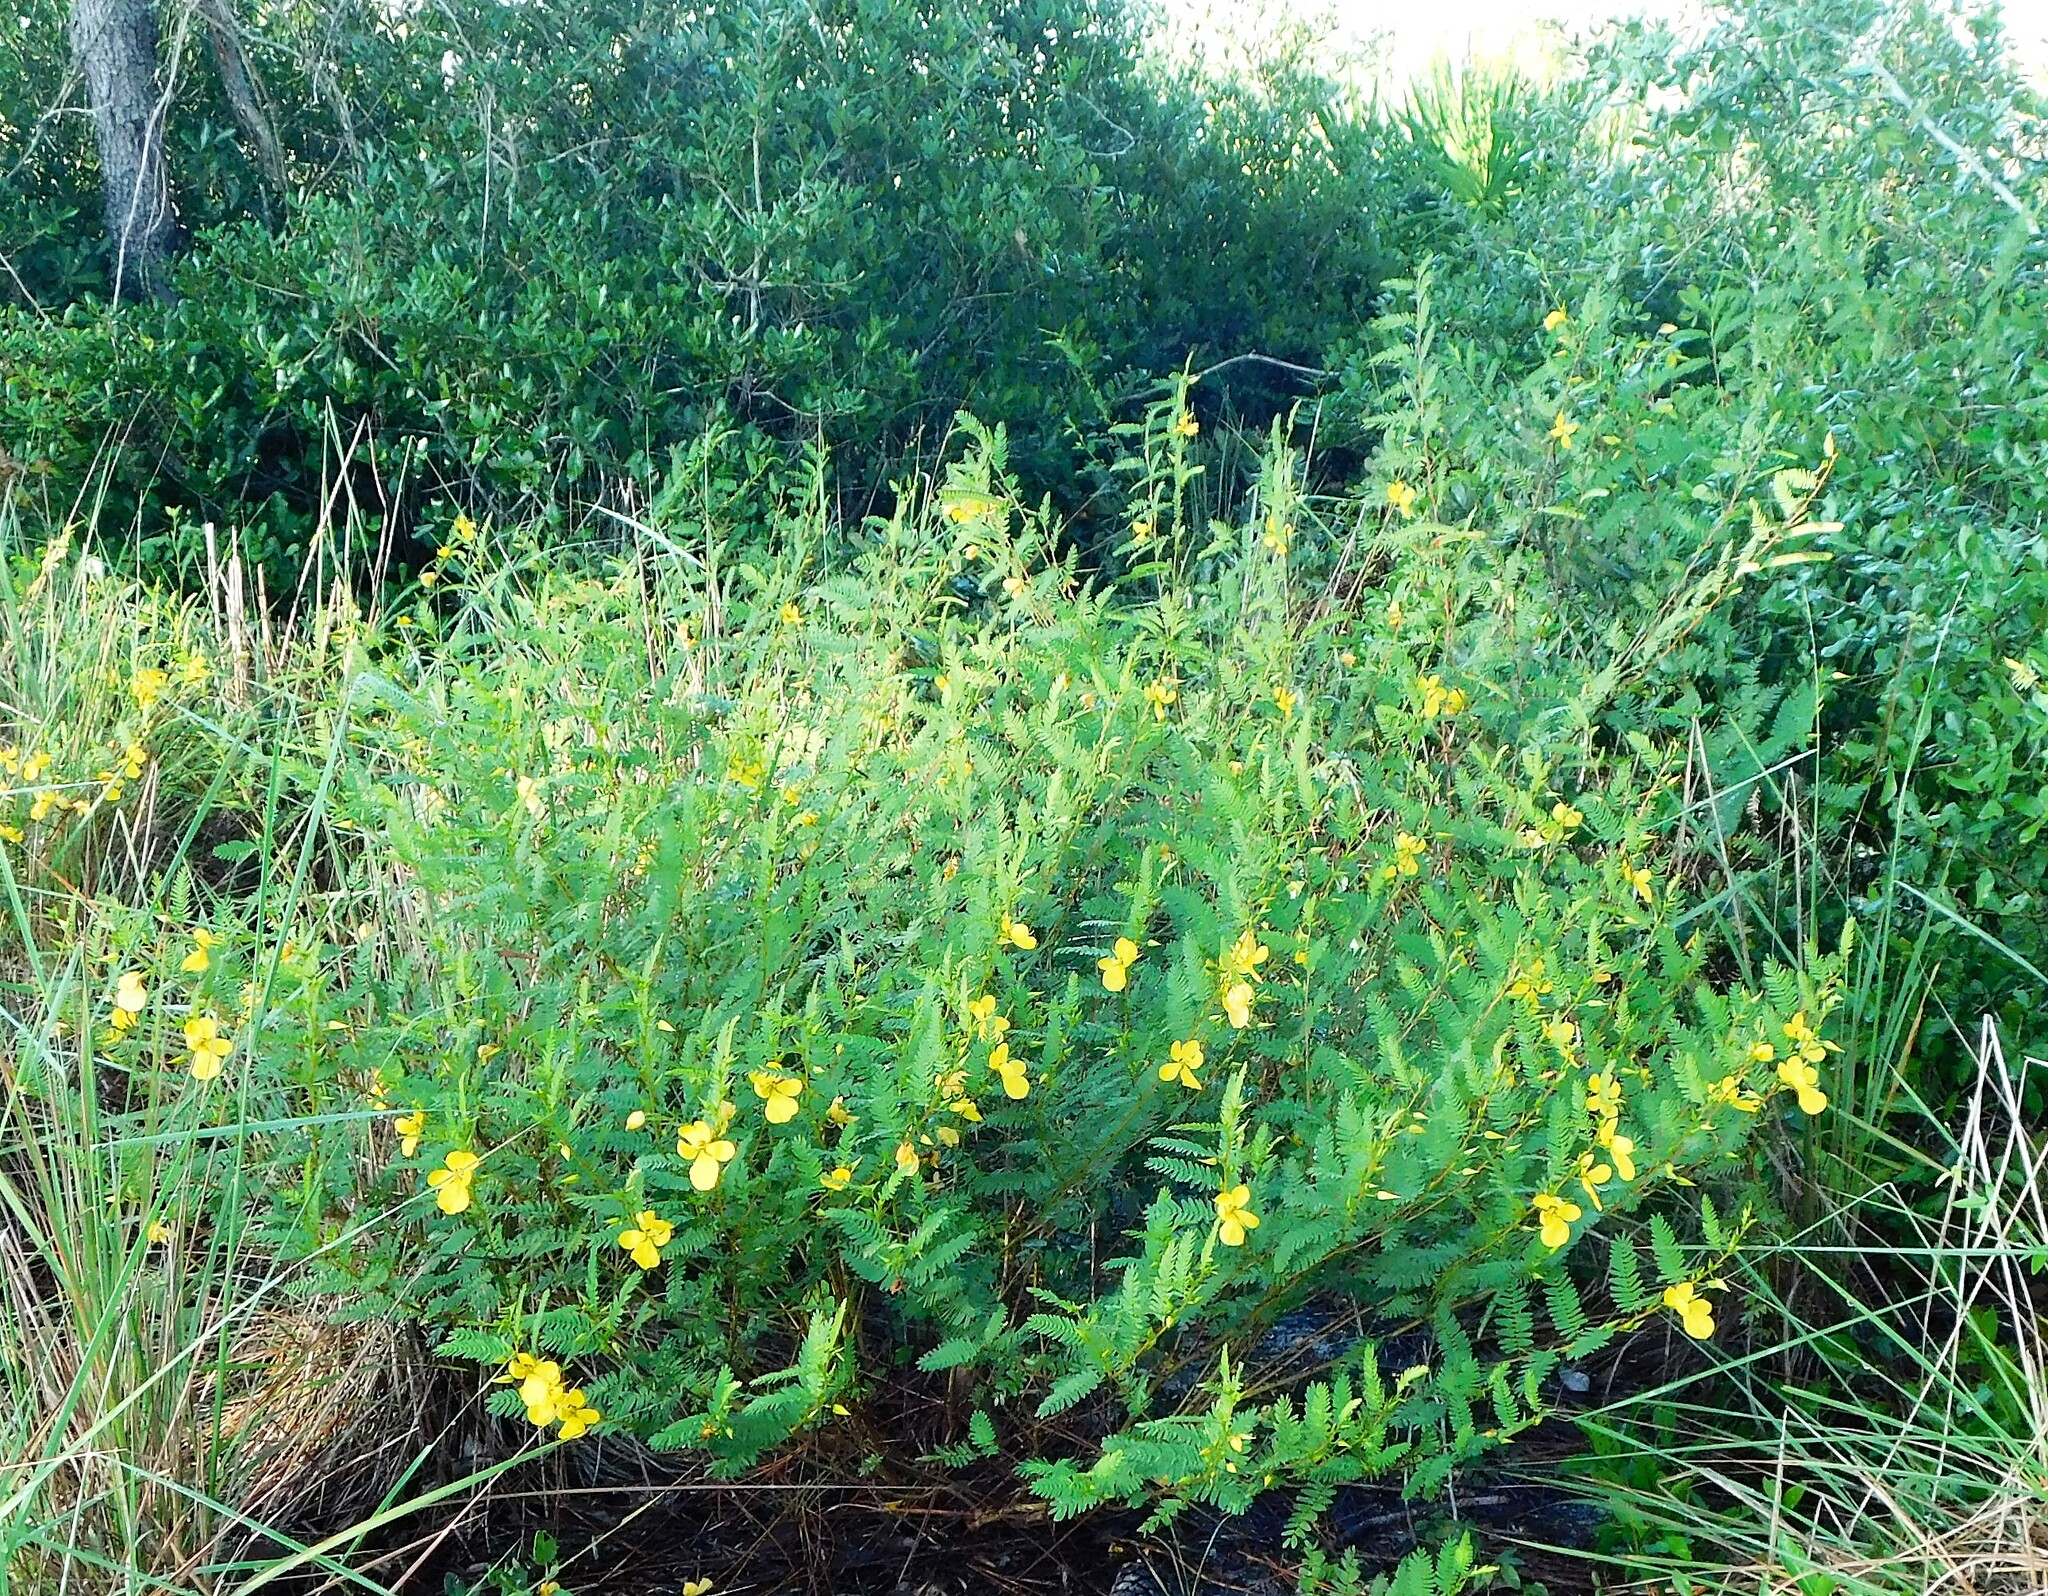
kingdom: Plantae
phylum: Tracheophyta
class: Magnoliopsida
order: Fabales
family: Fabaceae
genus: Chamaecrista
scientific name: Chamaecrista fasciculata
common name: Golden cassia
